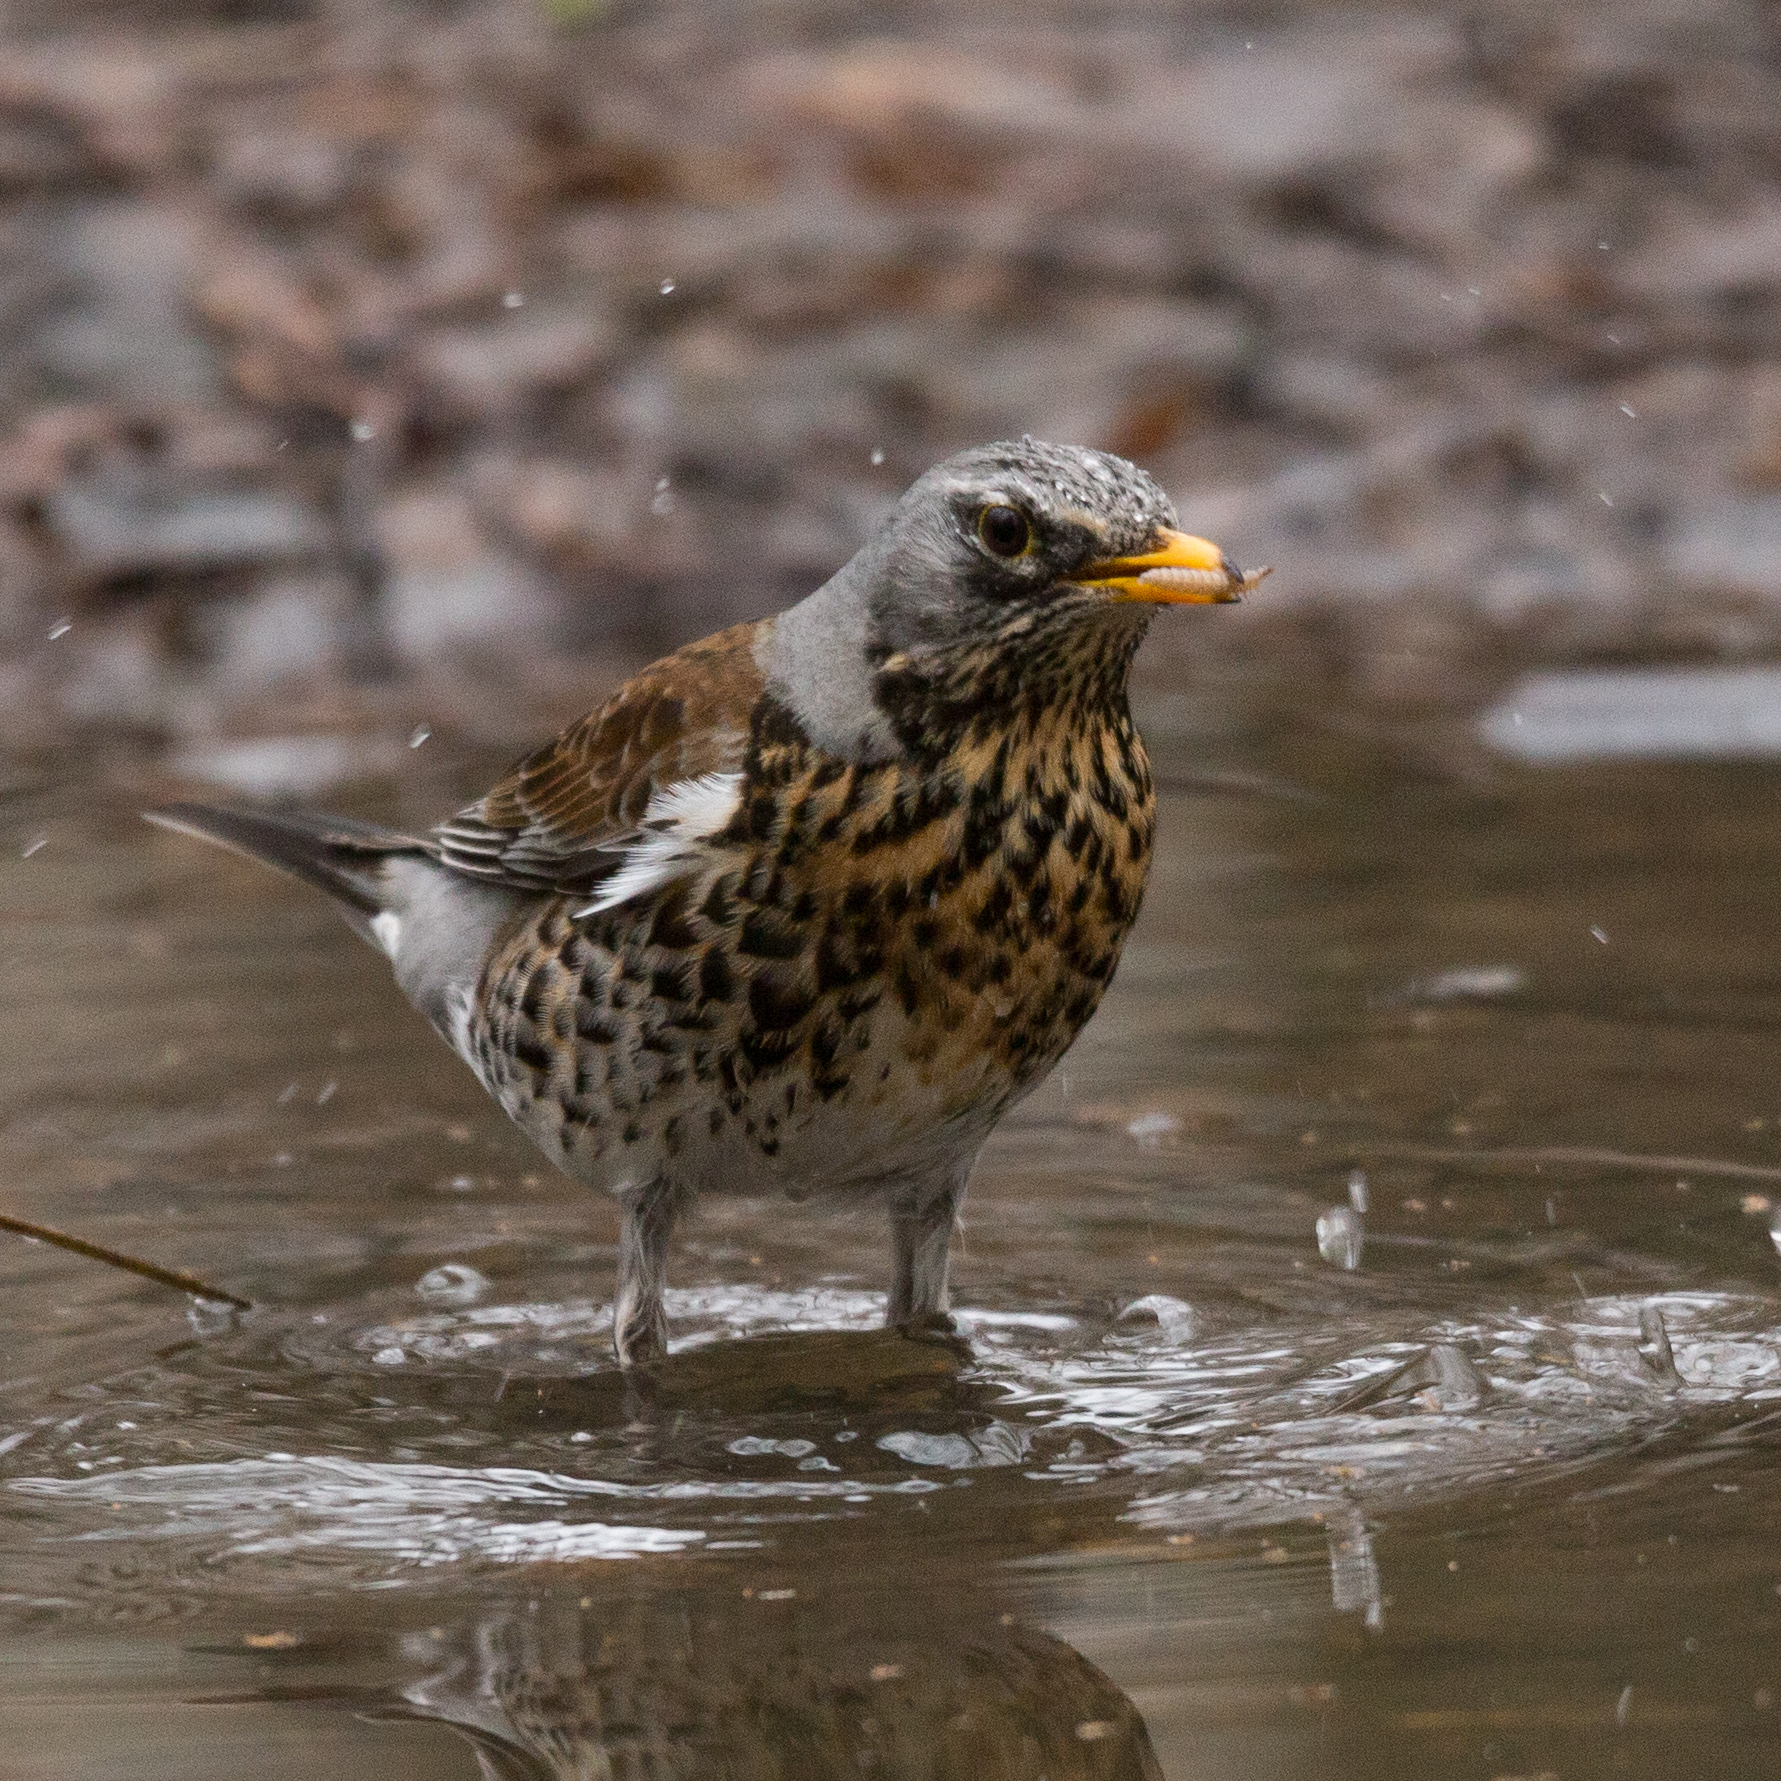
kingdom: Animalia
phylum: Chordata
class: Aves
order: Passeriformes
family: Turdidae
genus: Turdus
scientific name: Turdus pilaris
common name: Fieldfare
